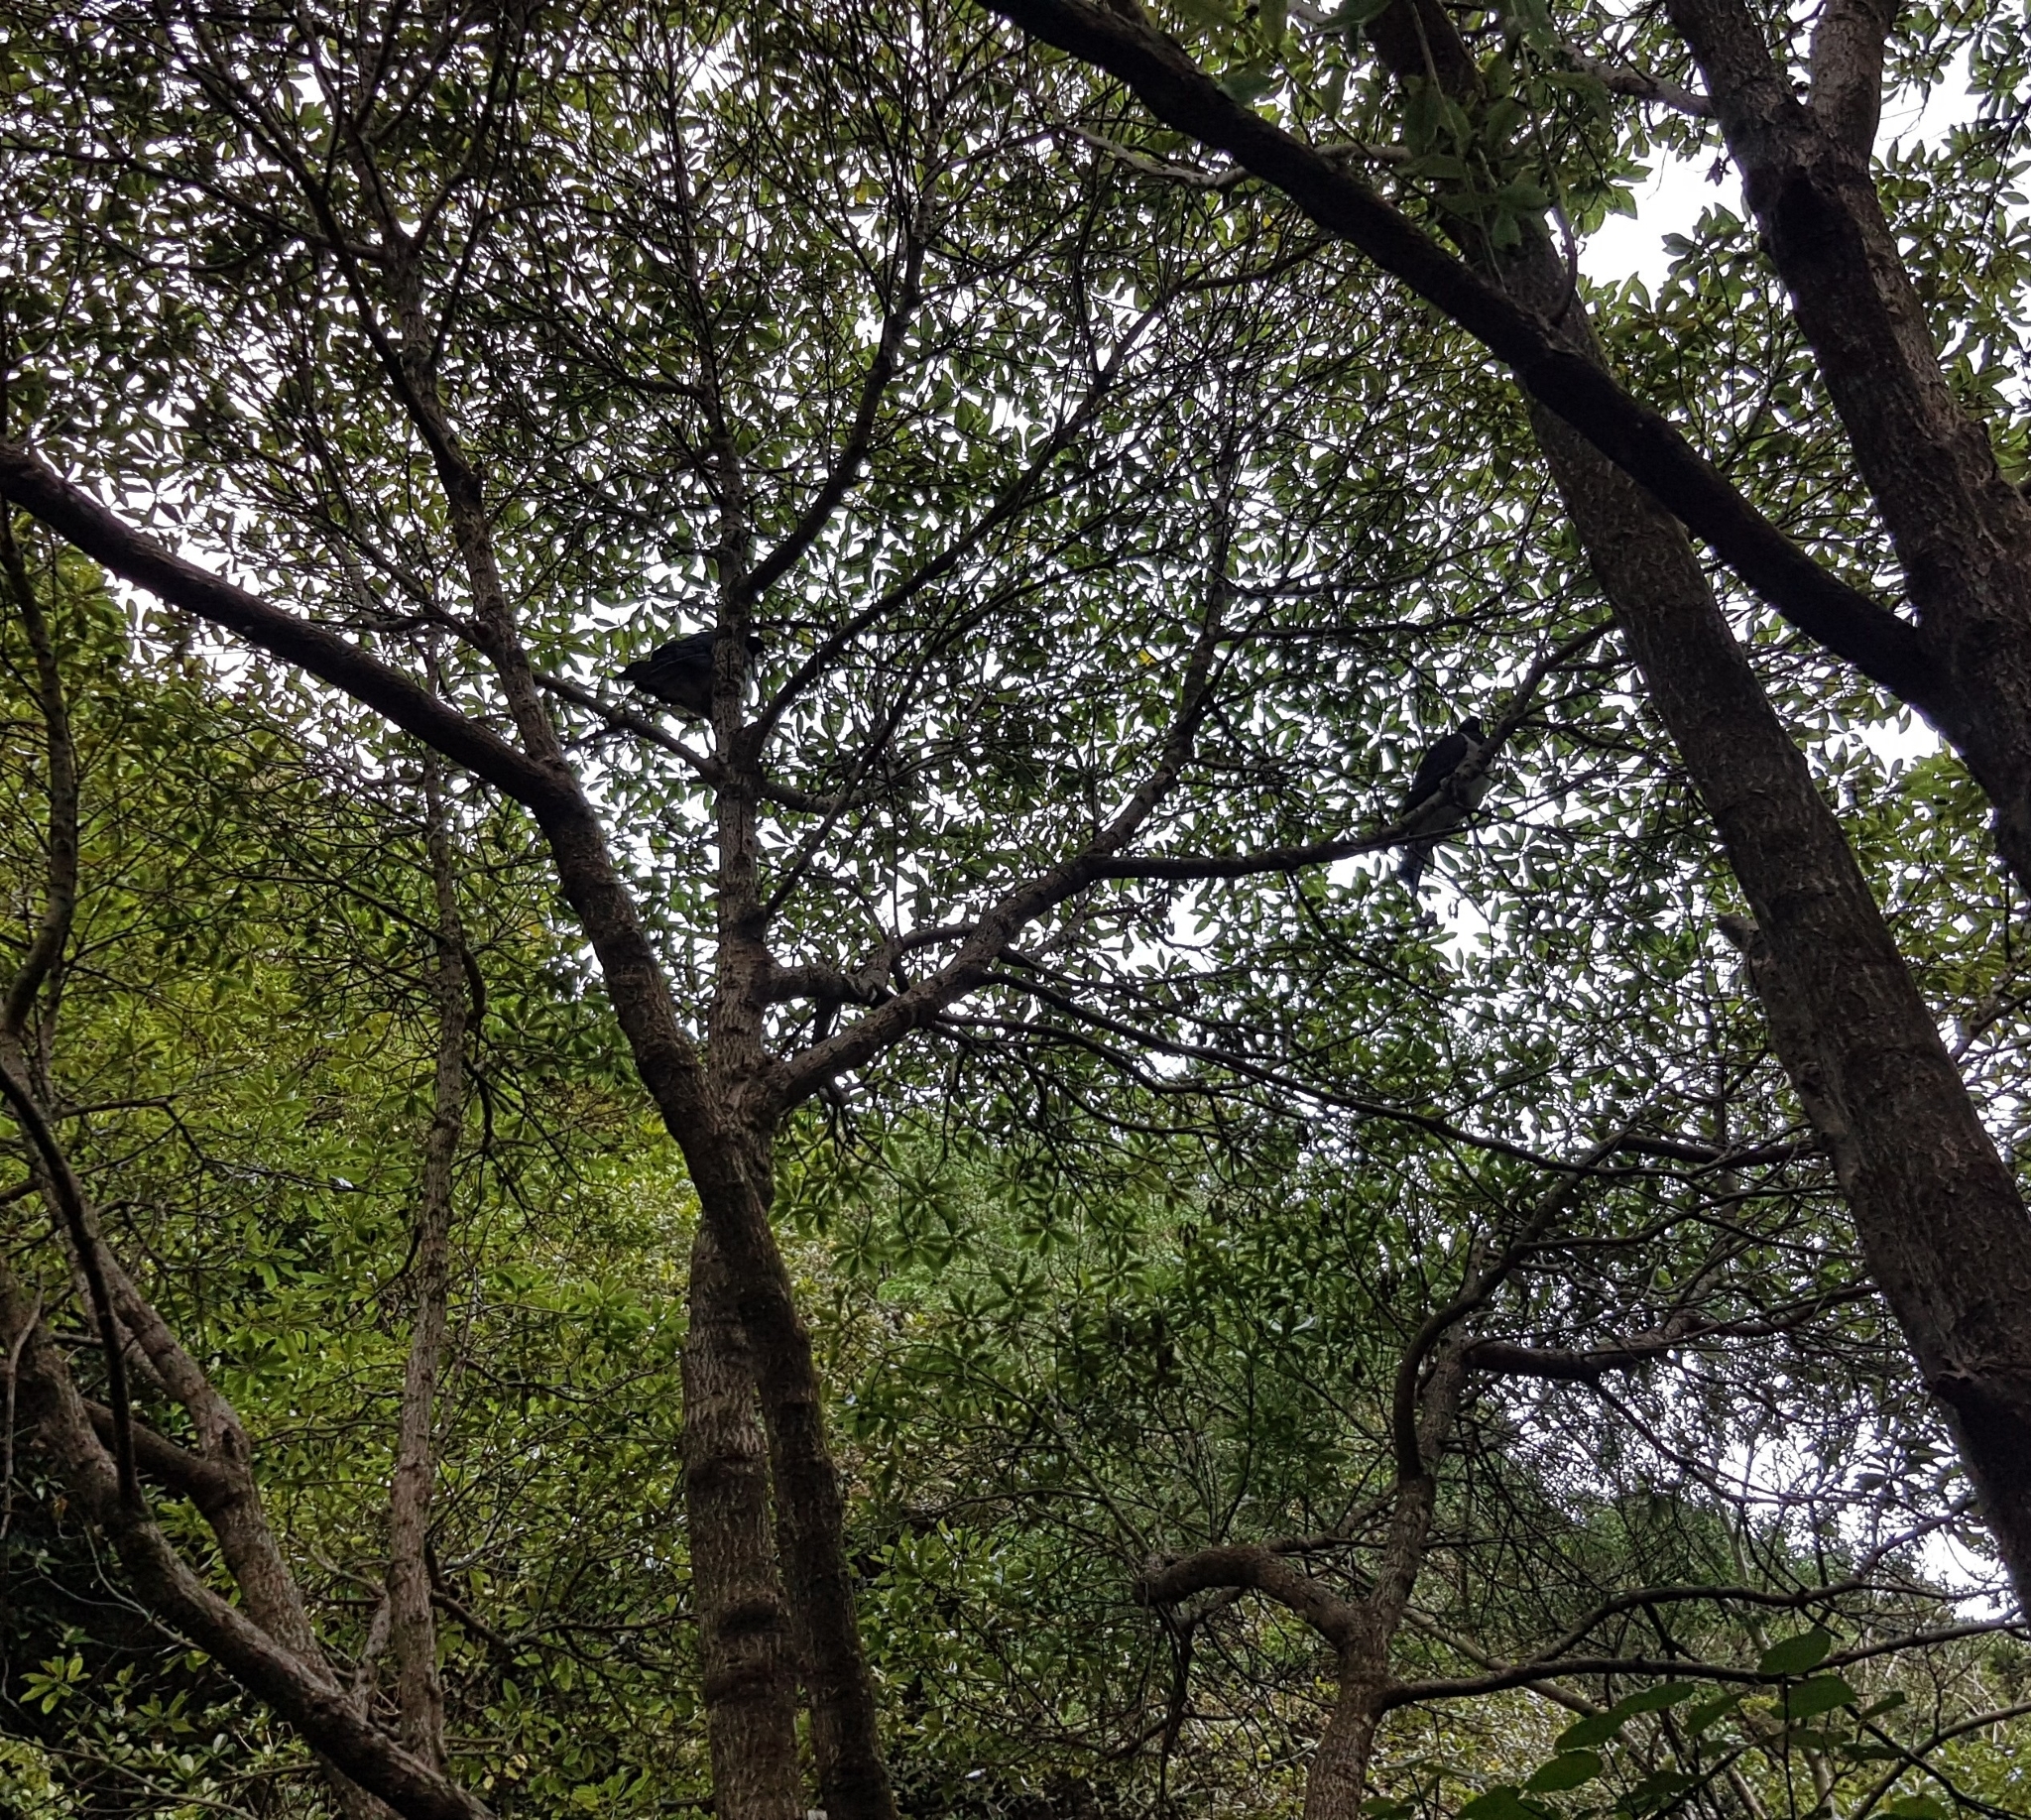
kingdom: Animalia
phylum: Chordata
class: Aves
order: Columbiformes
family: Columbidae
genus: Hemiphaga
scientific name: Hemiphaga novaeseelandiae
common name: New zealand pigeon
